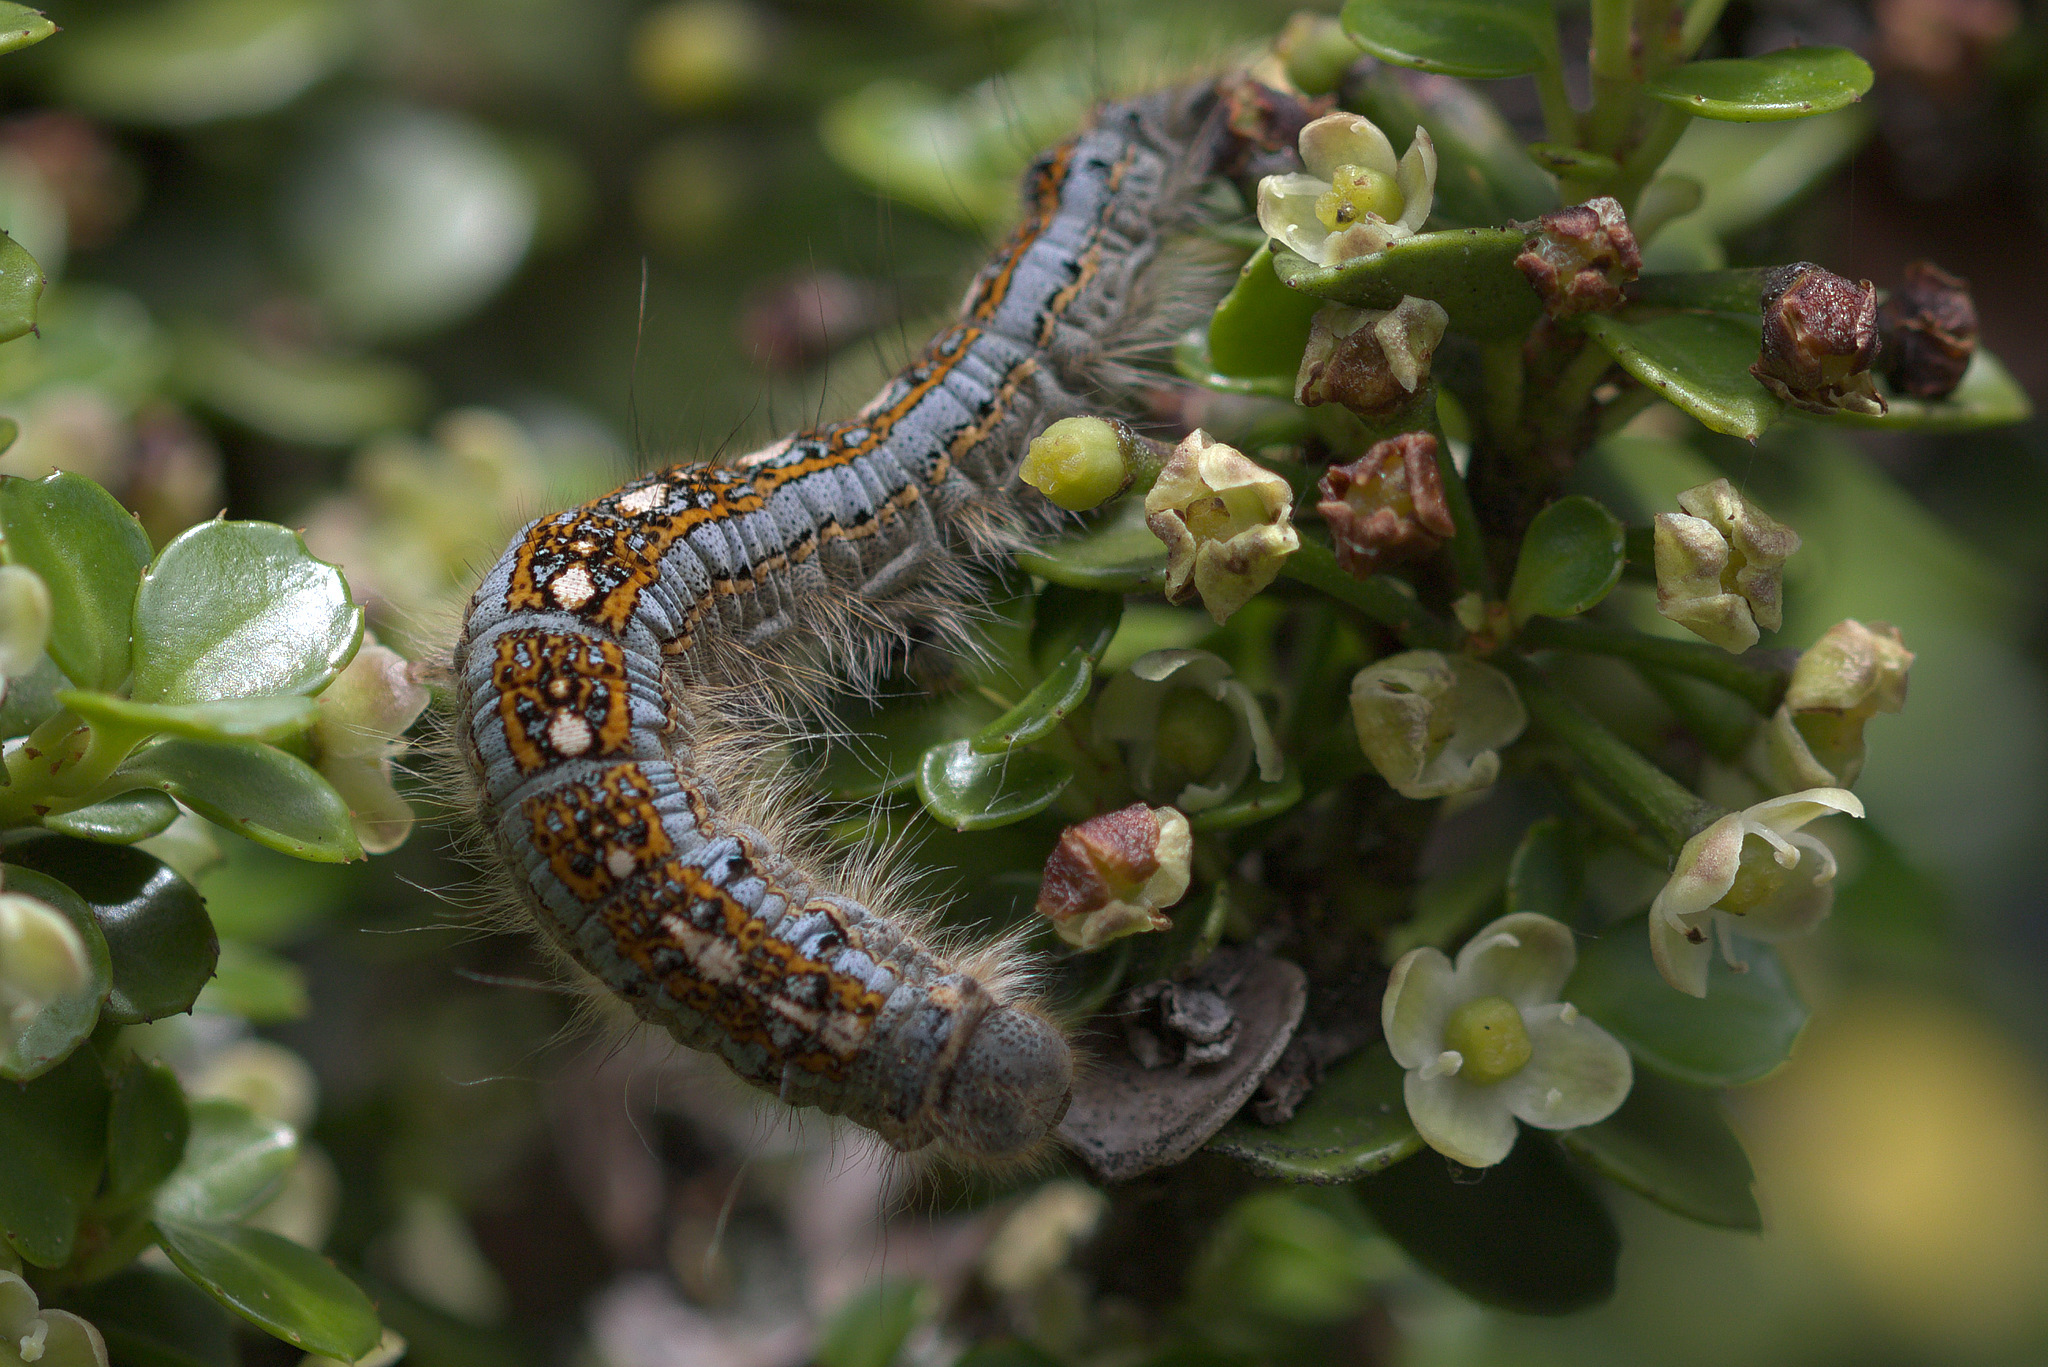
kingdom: Animalia
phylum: Arthropoda
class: Insecta
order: Lepidoptera
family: Lasiocampidae
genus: Malacosoma
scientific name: Malacosoma disstria
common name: Forest tent caterpillar
